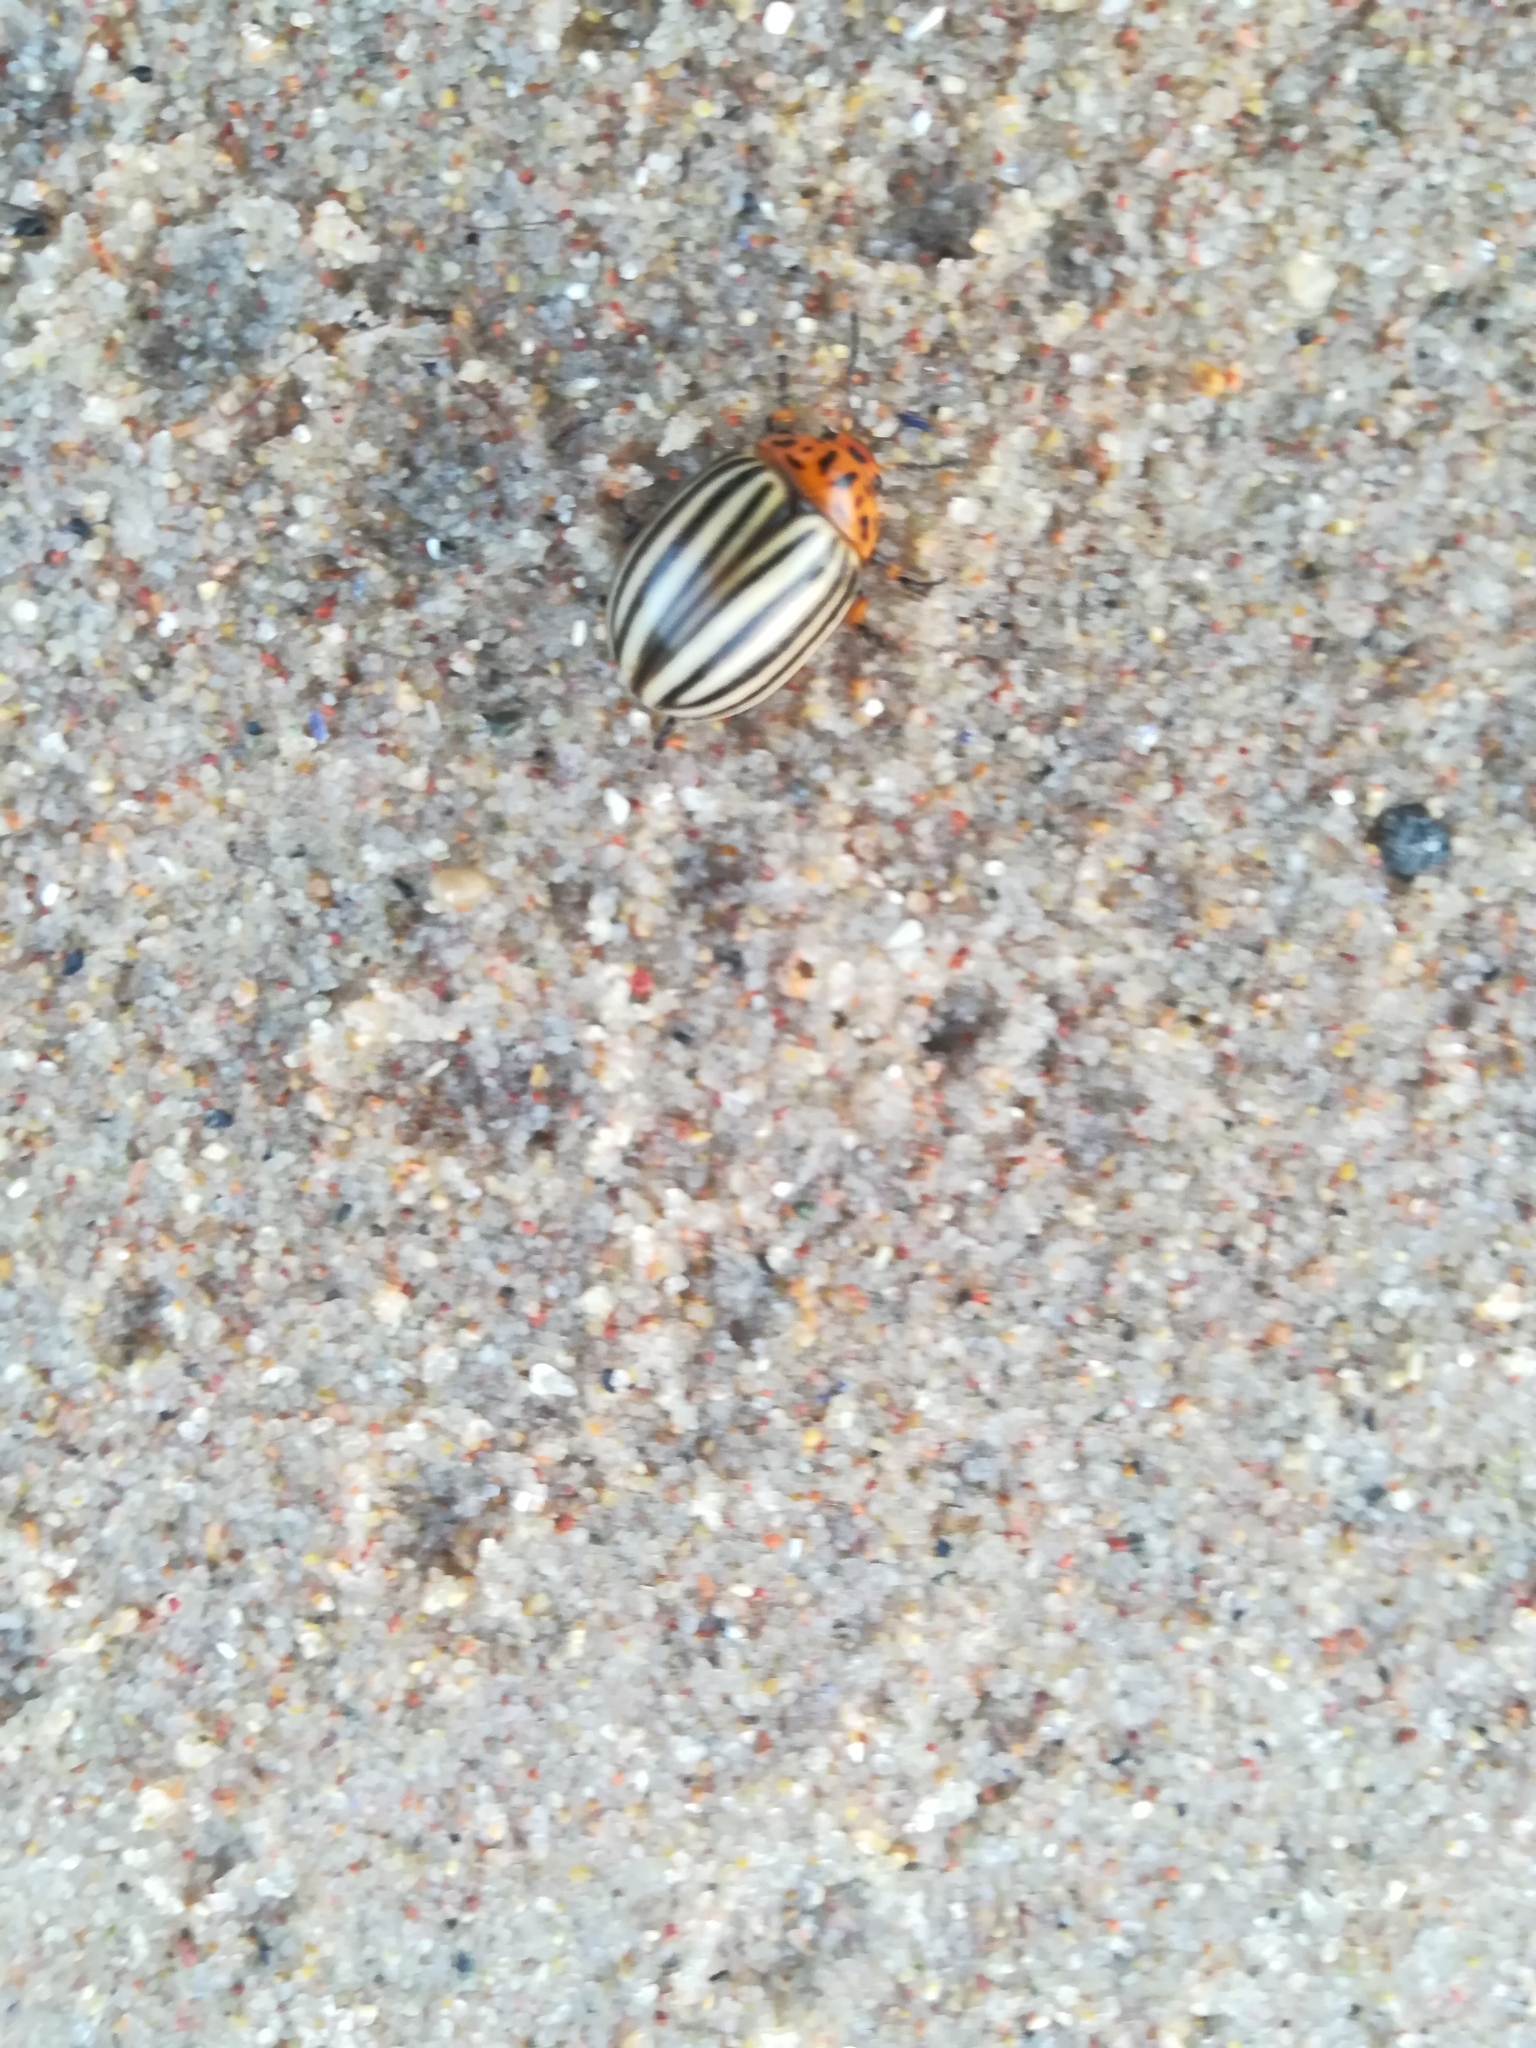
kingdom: Animalia
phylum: Arthropoda
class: Insecta
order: Coleoptera
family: Chrysomelidae
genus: Leptinotarsa
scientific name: Leptinotarsa decemlineata
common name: Colorado potato beetle
